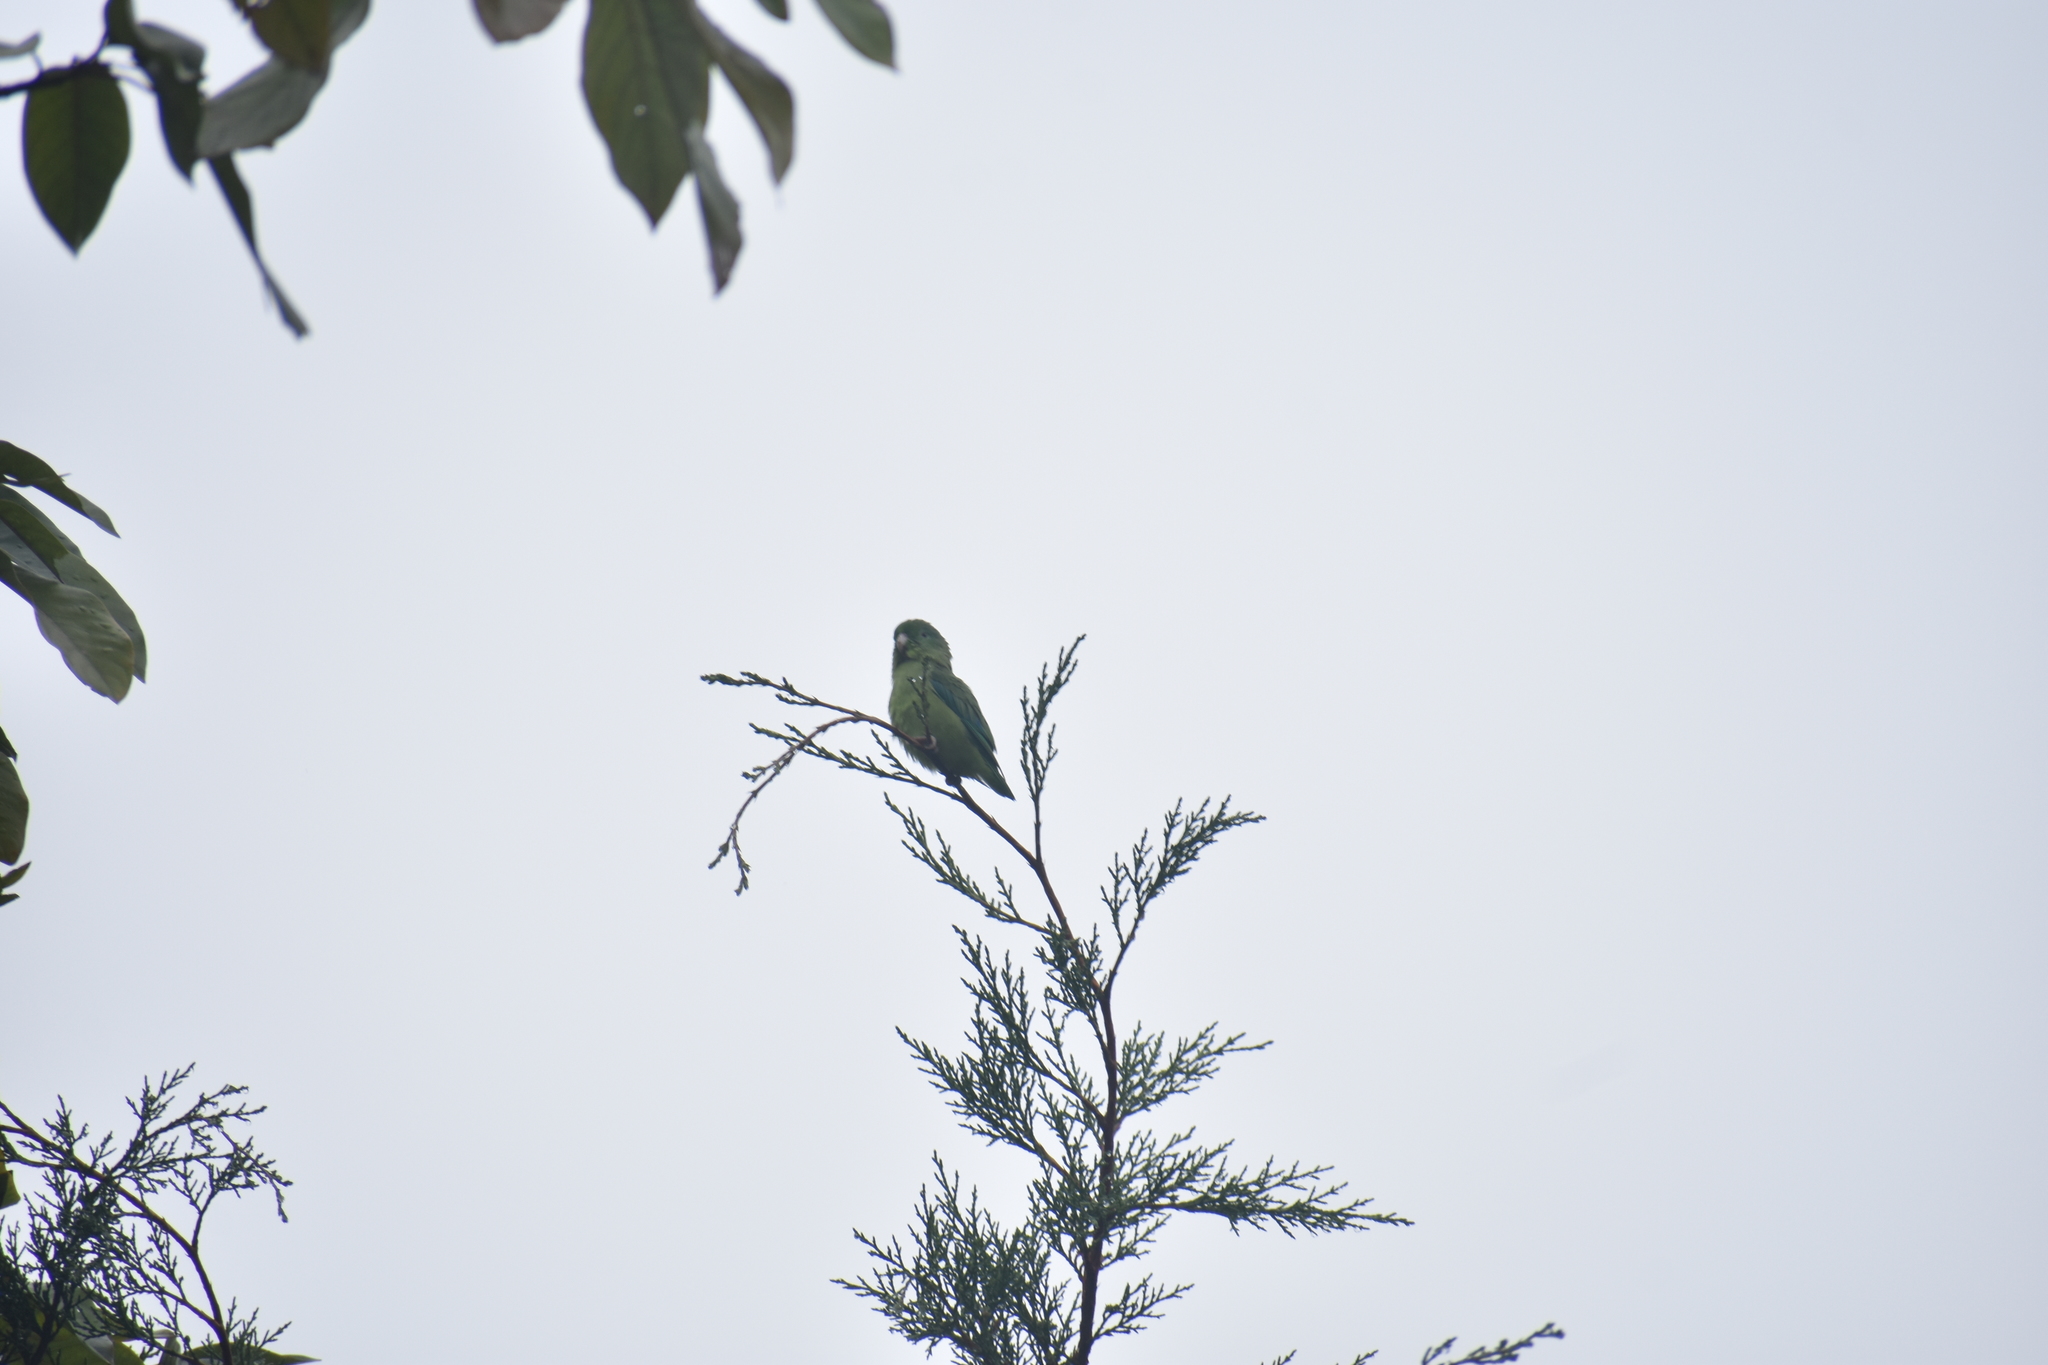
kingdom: Animalia
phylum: Chordata
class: Aves
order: Psittaciformes
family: Psittacidae
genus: Forpus
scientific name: Forpus conspicillatus
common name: Spectacled parrotlet
